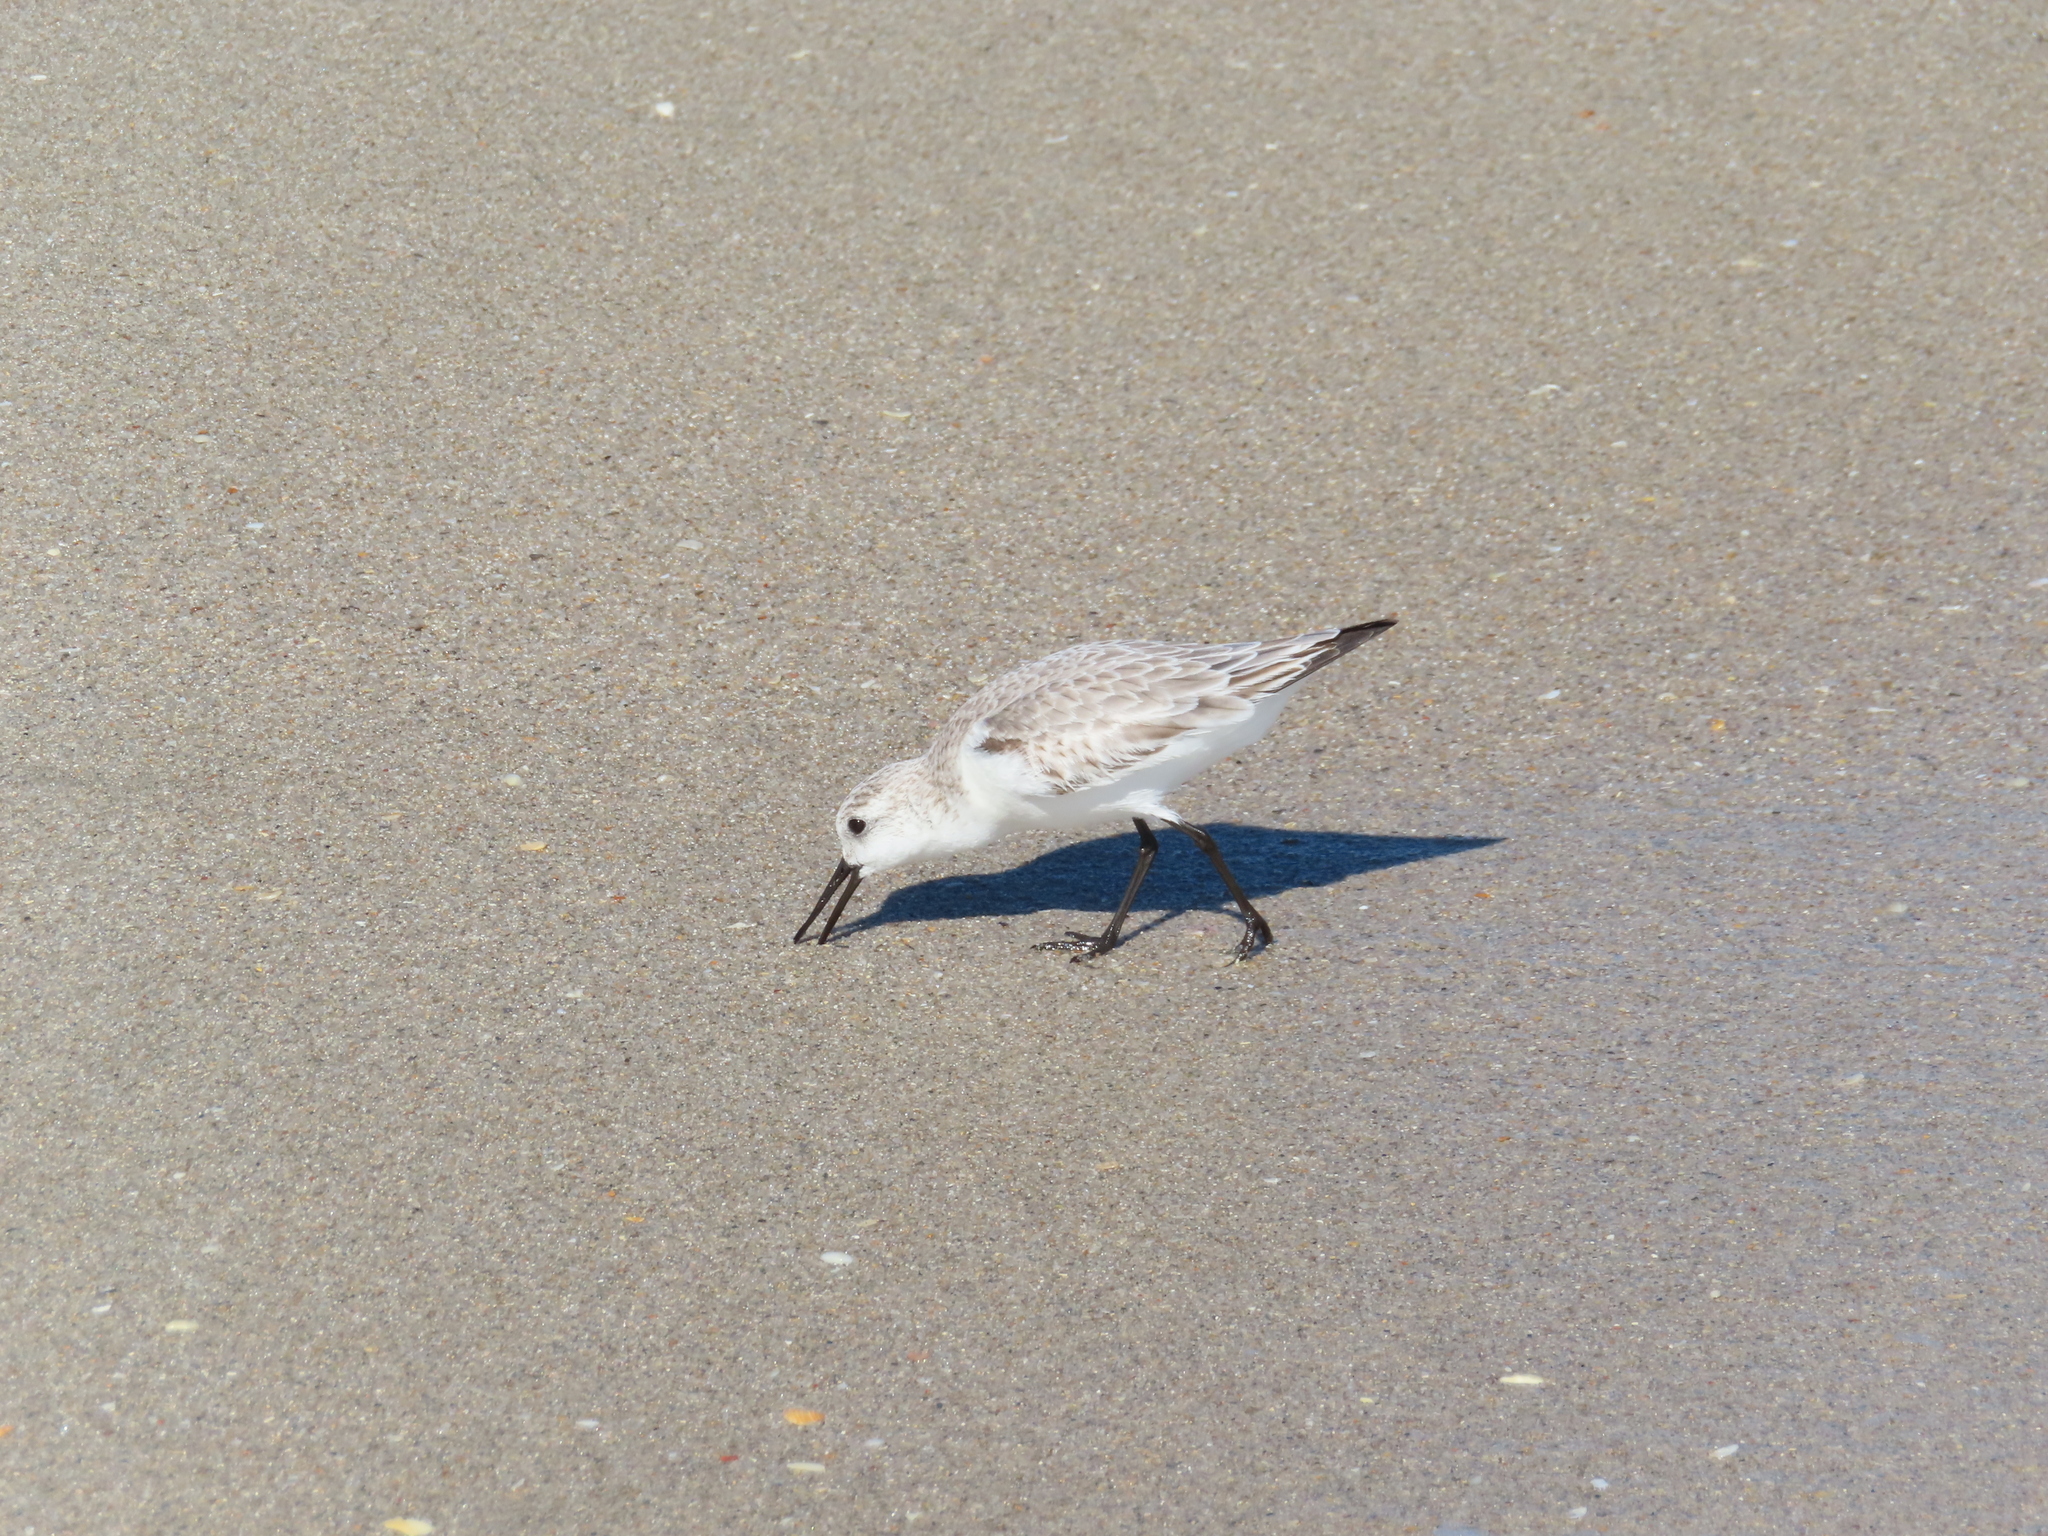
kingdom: Animalia
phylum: Chordata
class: Aves
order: Charadriiformes
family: Scolopacidae
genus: Calidris
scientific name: Calidris alba
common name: Sanderling
